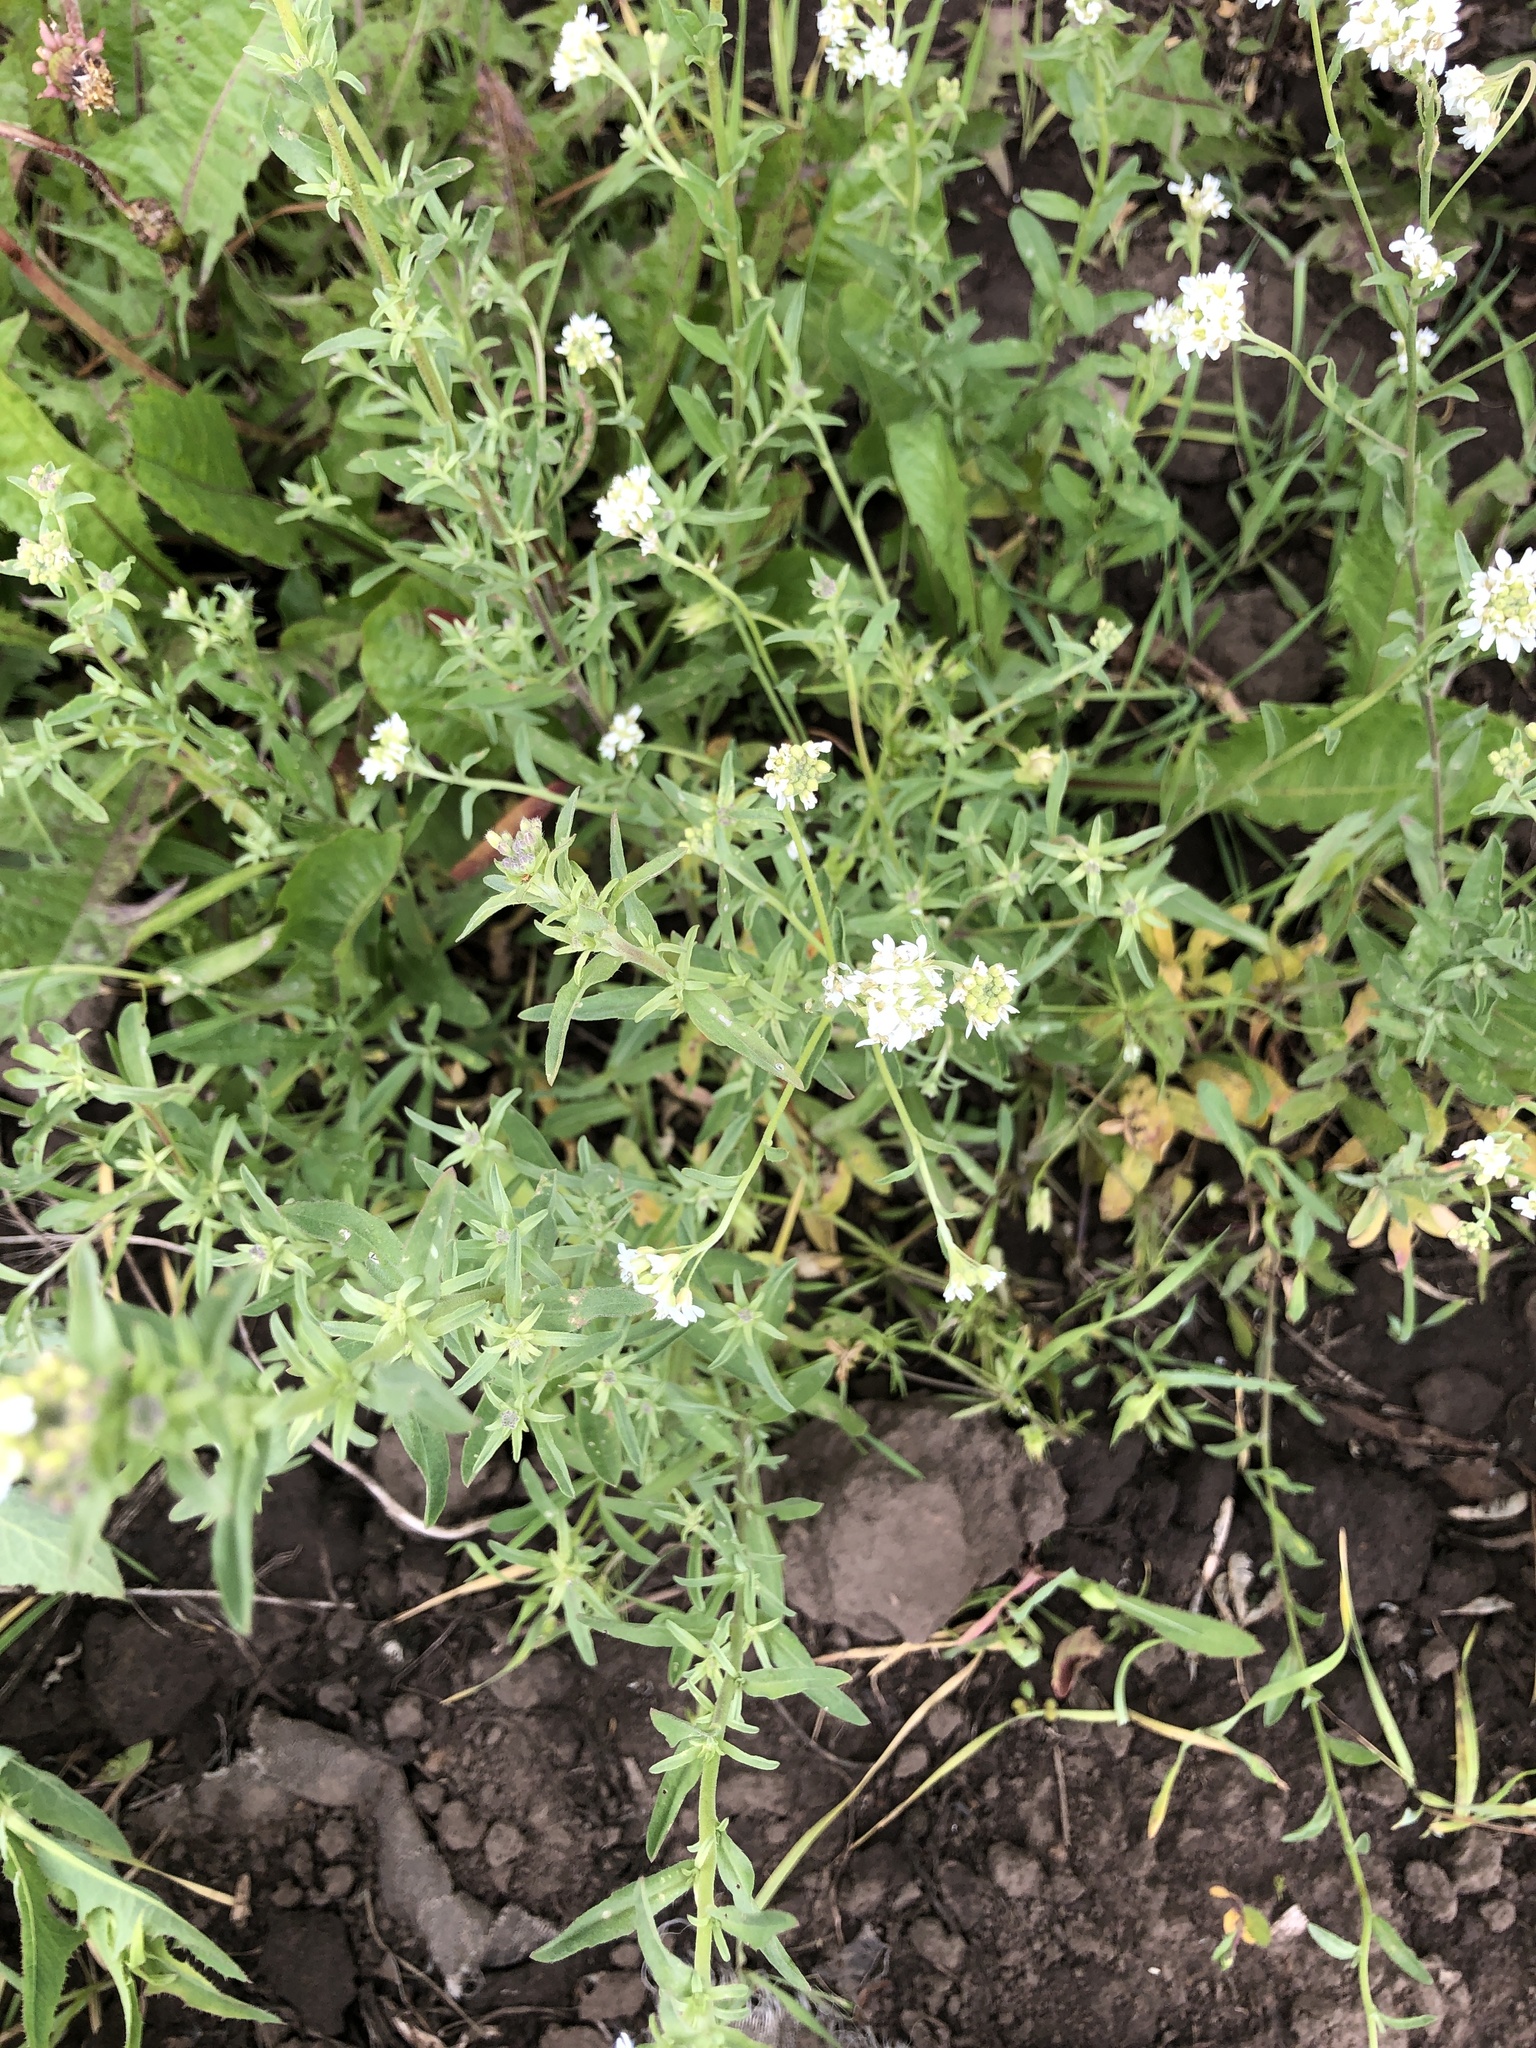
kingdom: Plantae
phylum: Tracheophyta
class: Magnoliopsida
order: Brassicales
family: Brassicaceae
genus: Berteroa
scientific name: Berteroa incana
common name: Hoary alison
